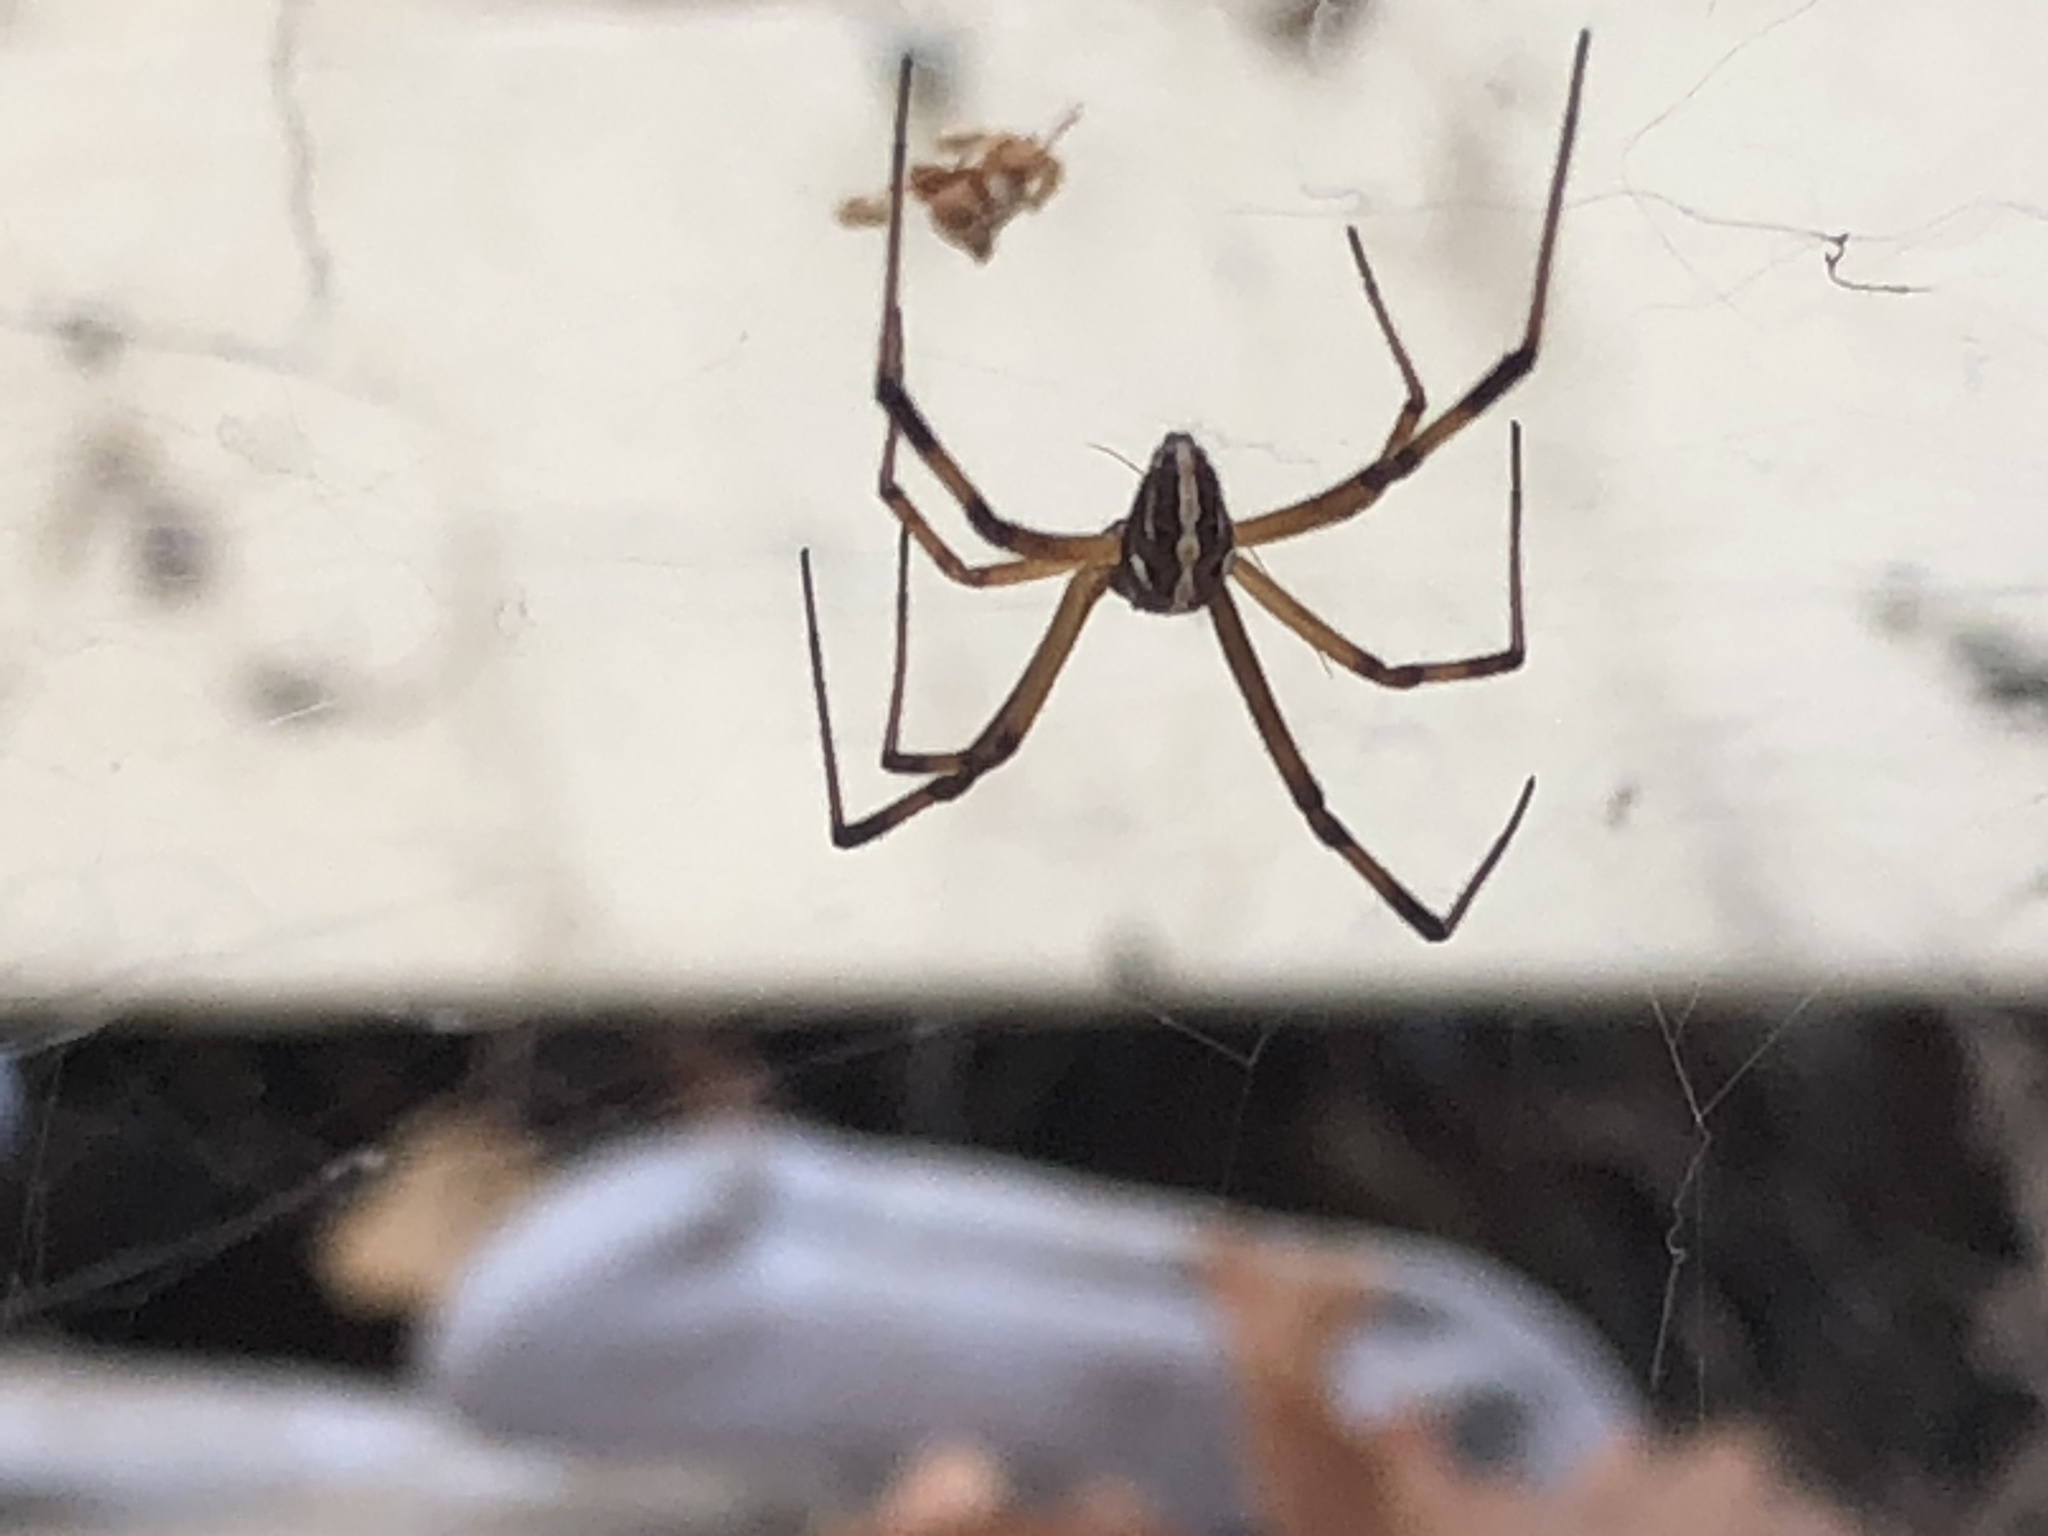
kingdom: Animalia
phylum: Arthropoda
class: Arachnida
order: Araneae
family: Theridiidae
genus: Latrodectus
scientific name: Latrodectus hesperus
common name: Western black widow
